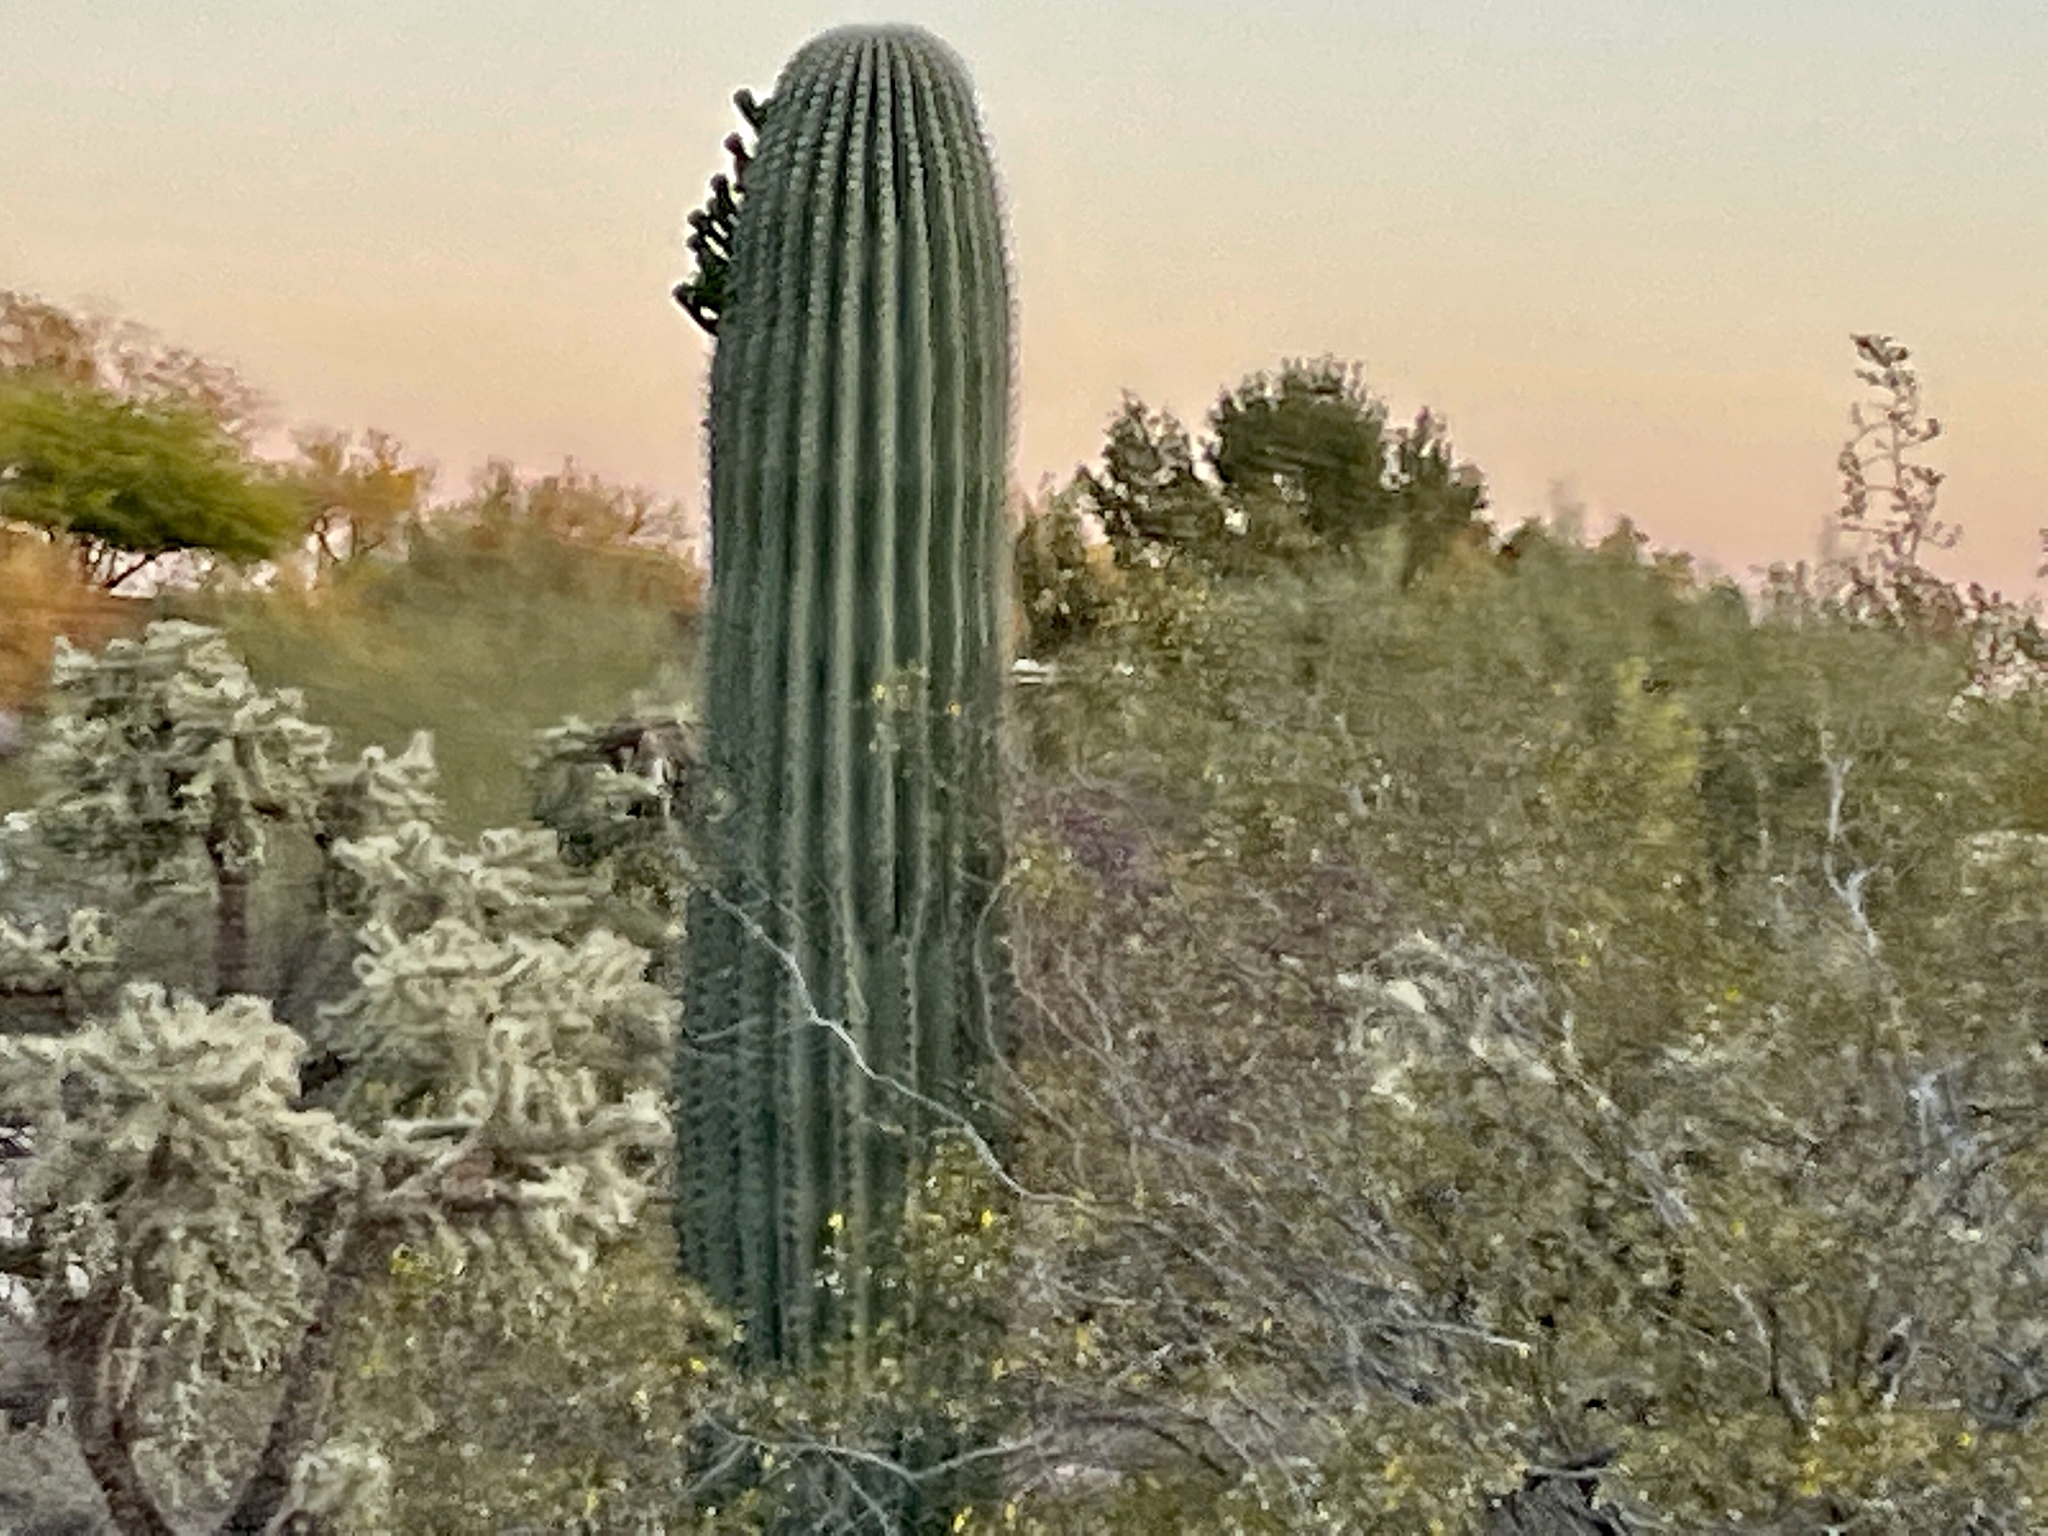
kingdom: Plantae
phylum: Tracheophyta
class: Magnoliopsida
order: Caryophyllales
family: Cactaceae
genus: Carnegiea
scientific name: Carnegiea gigantea
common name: Saguaro
